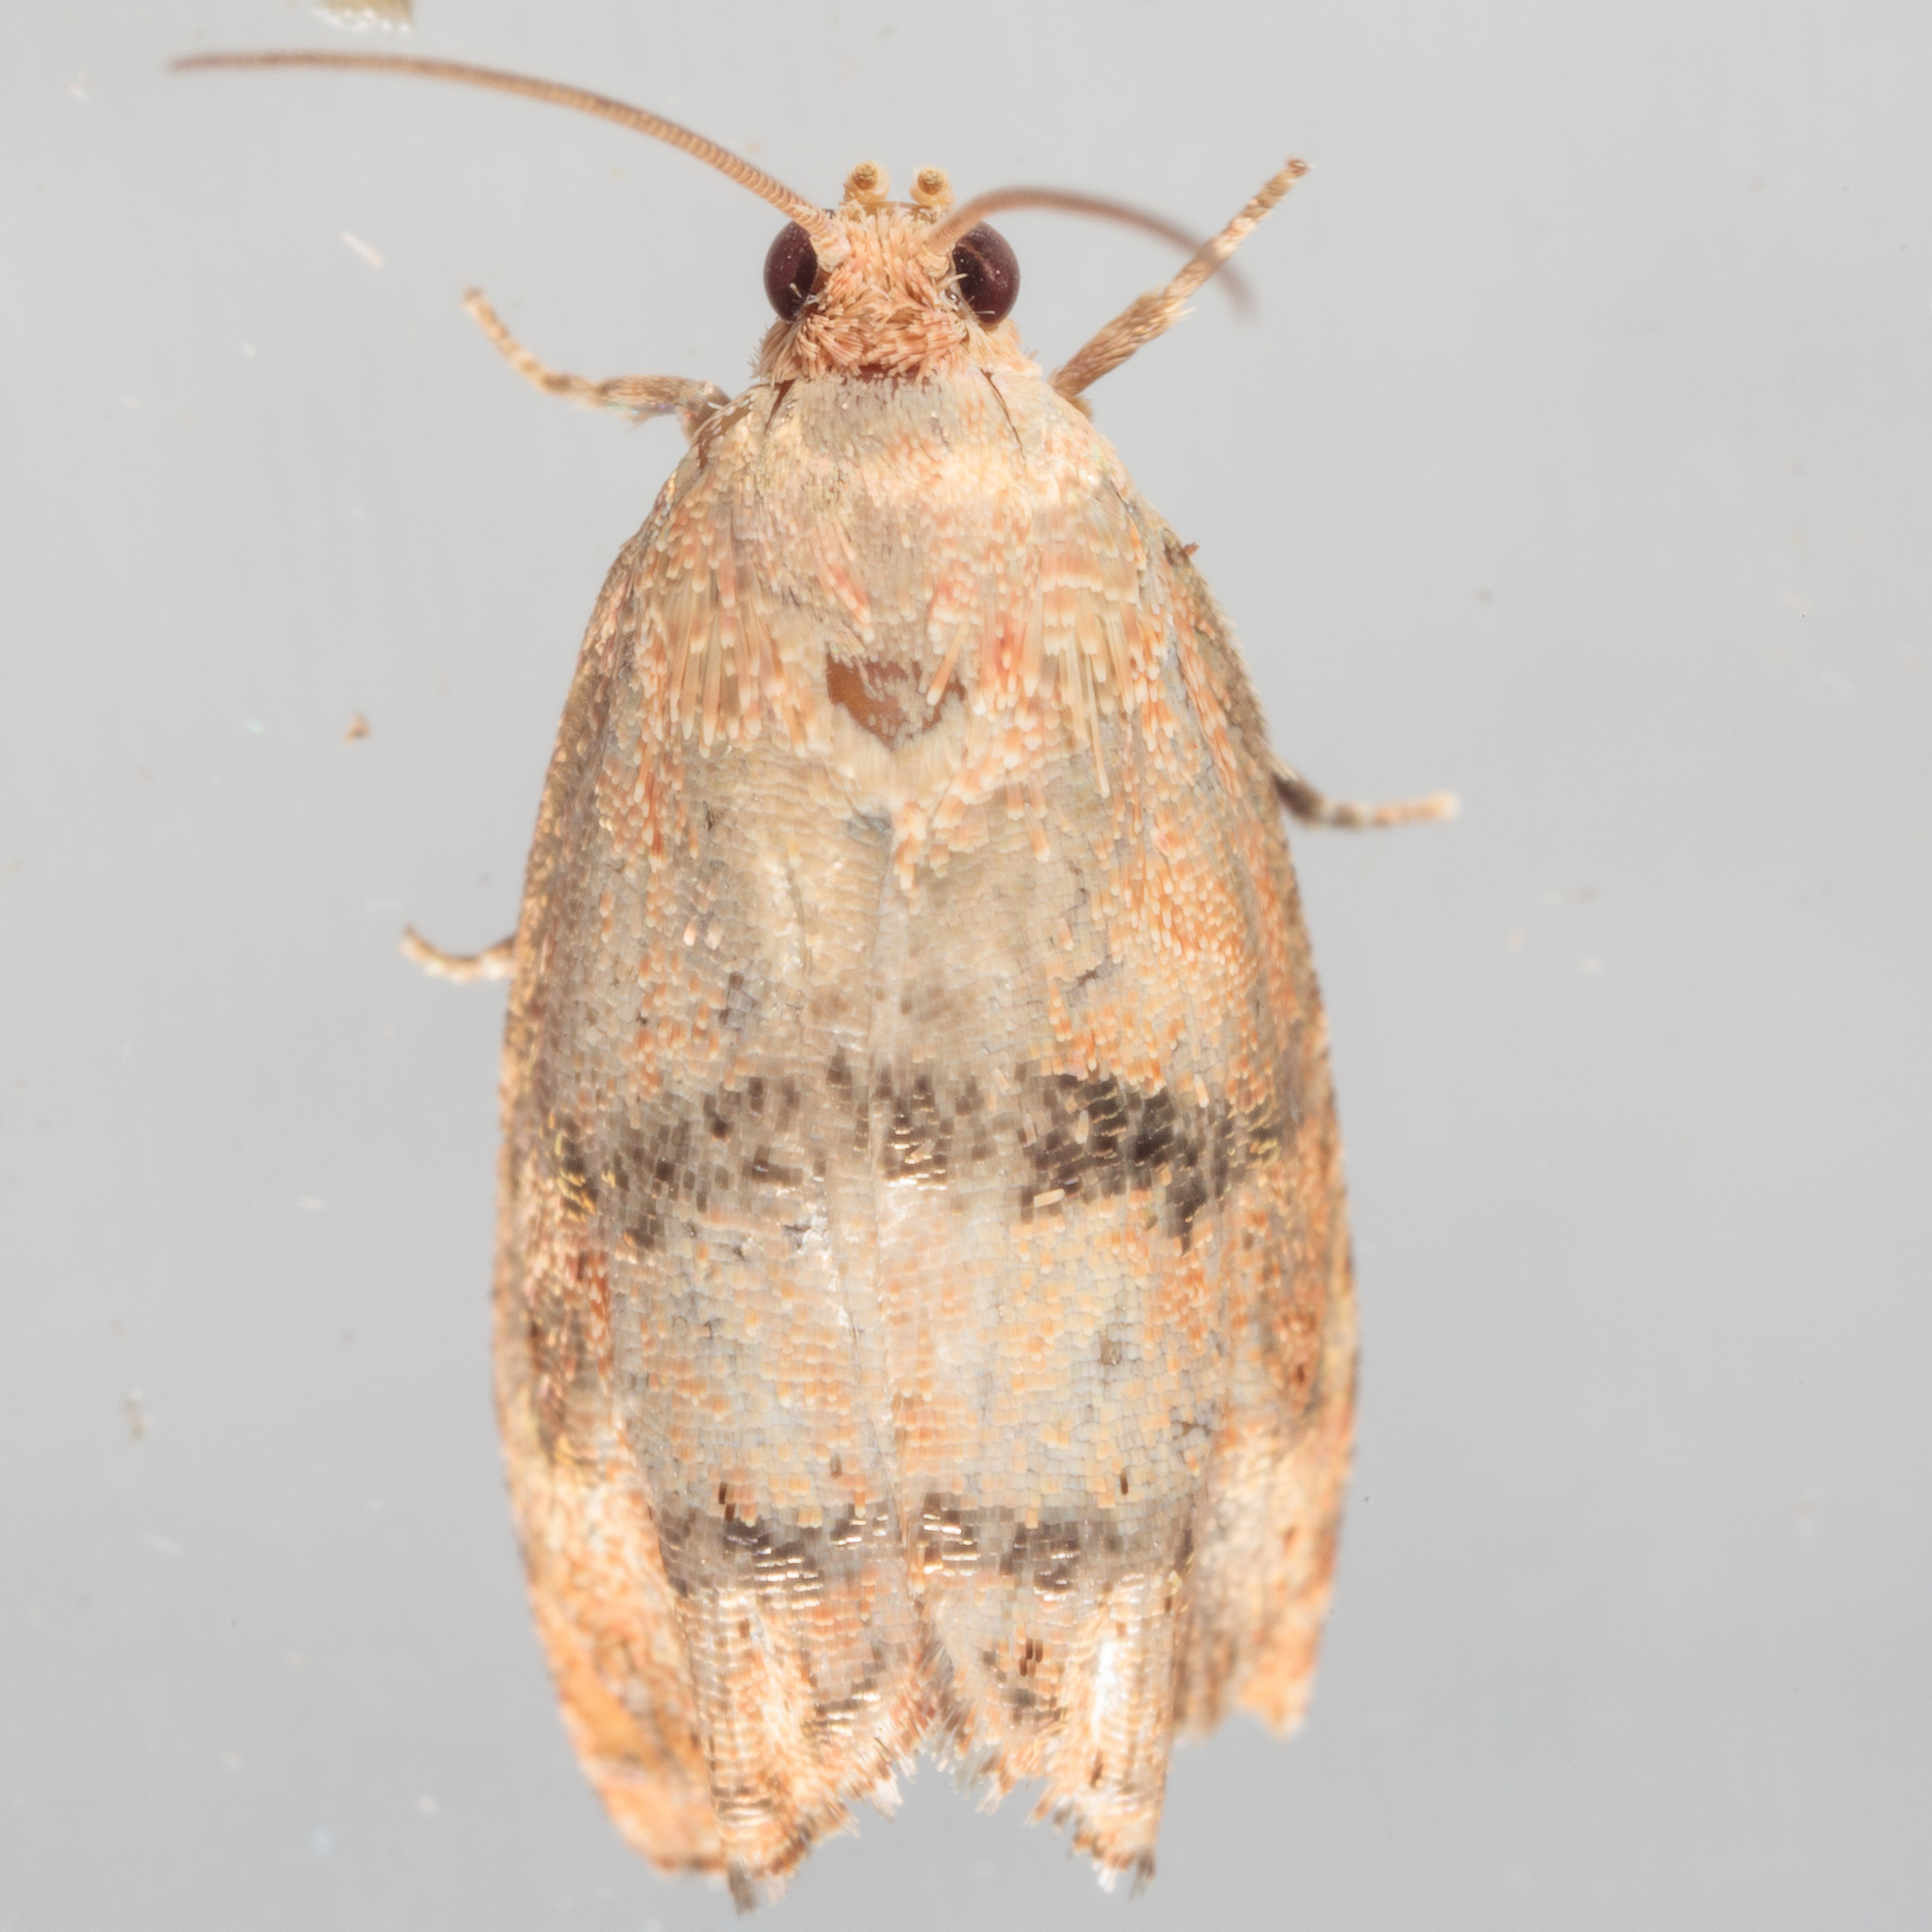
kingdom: Animalia
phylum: Arthropoda
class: Insecta
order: Lepidoptera
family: Tortricidae
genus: Cydia
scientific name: Cydia latiferreana
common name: Filbertworm moth
